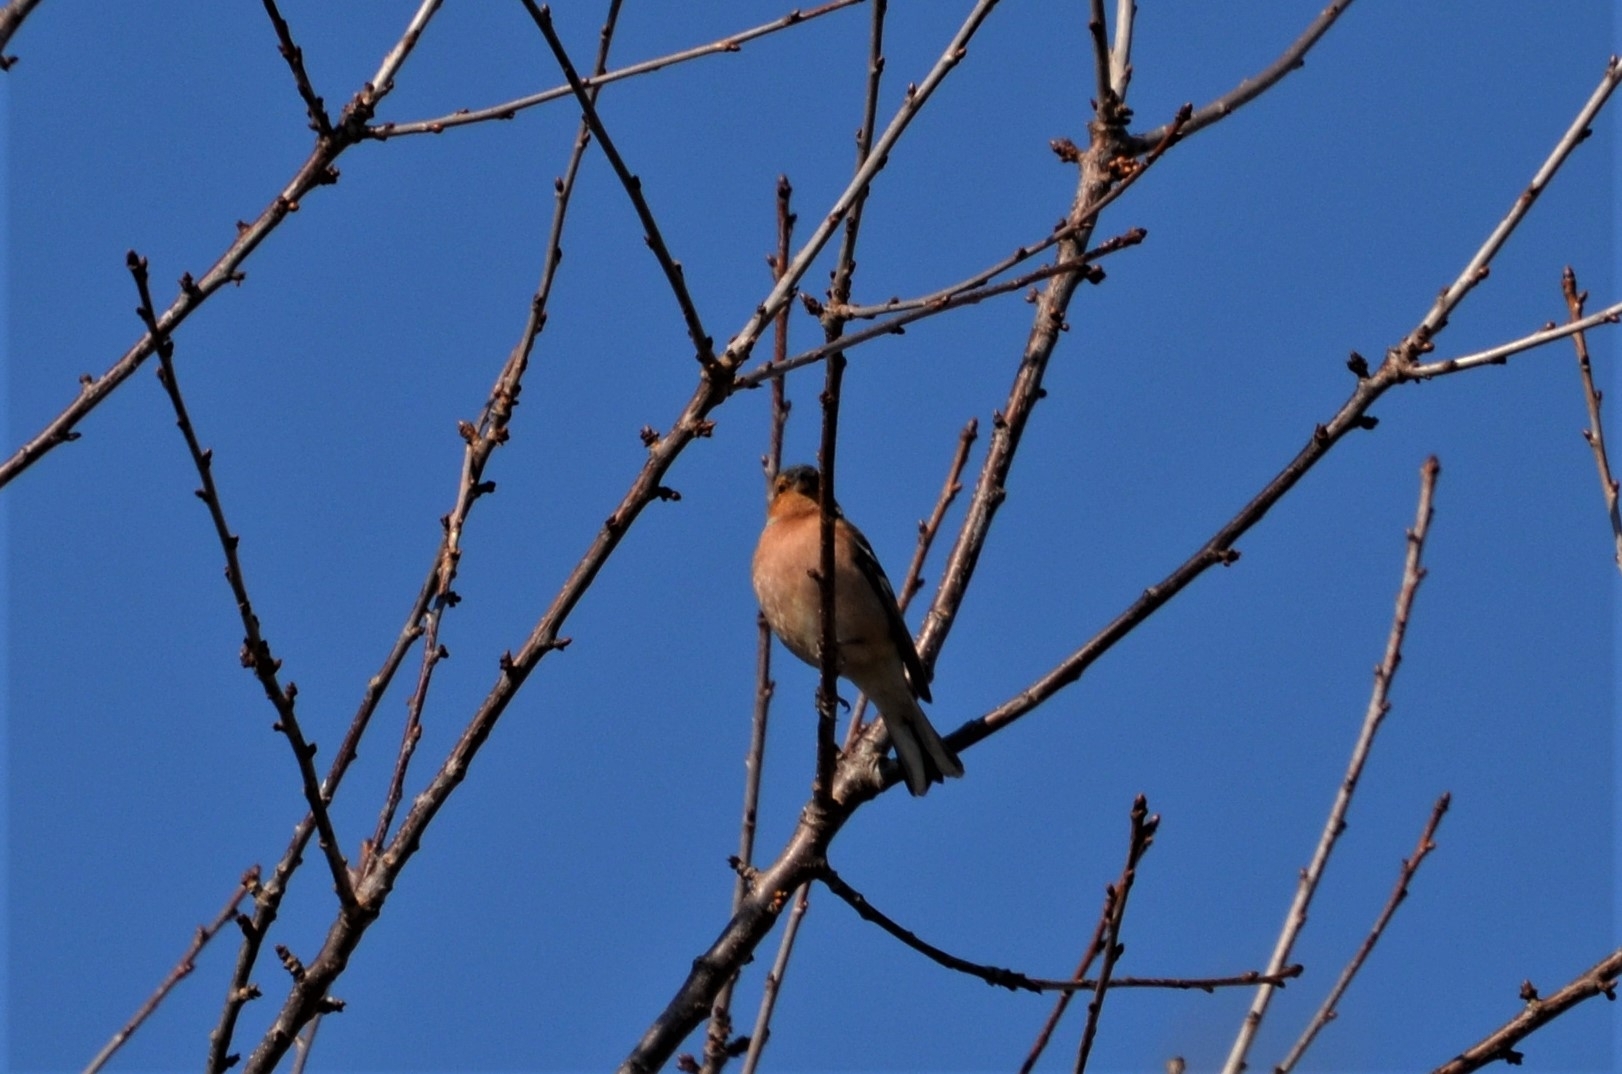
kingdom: Animalia
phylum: Chordata
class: Aves
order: Passeriformes
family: Fringillidae
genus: Fringilla
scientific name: Fringilla coelebs
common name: Common chaffinch
